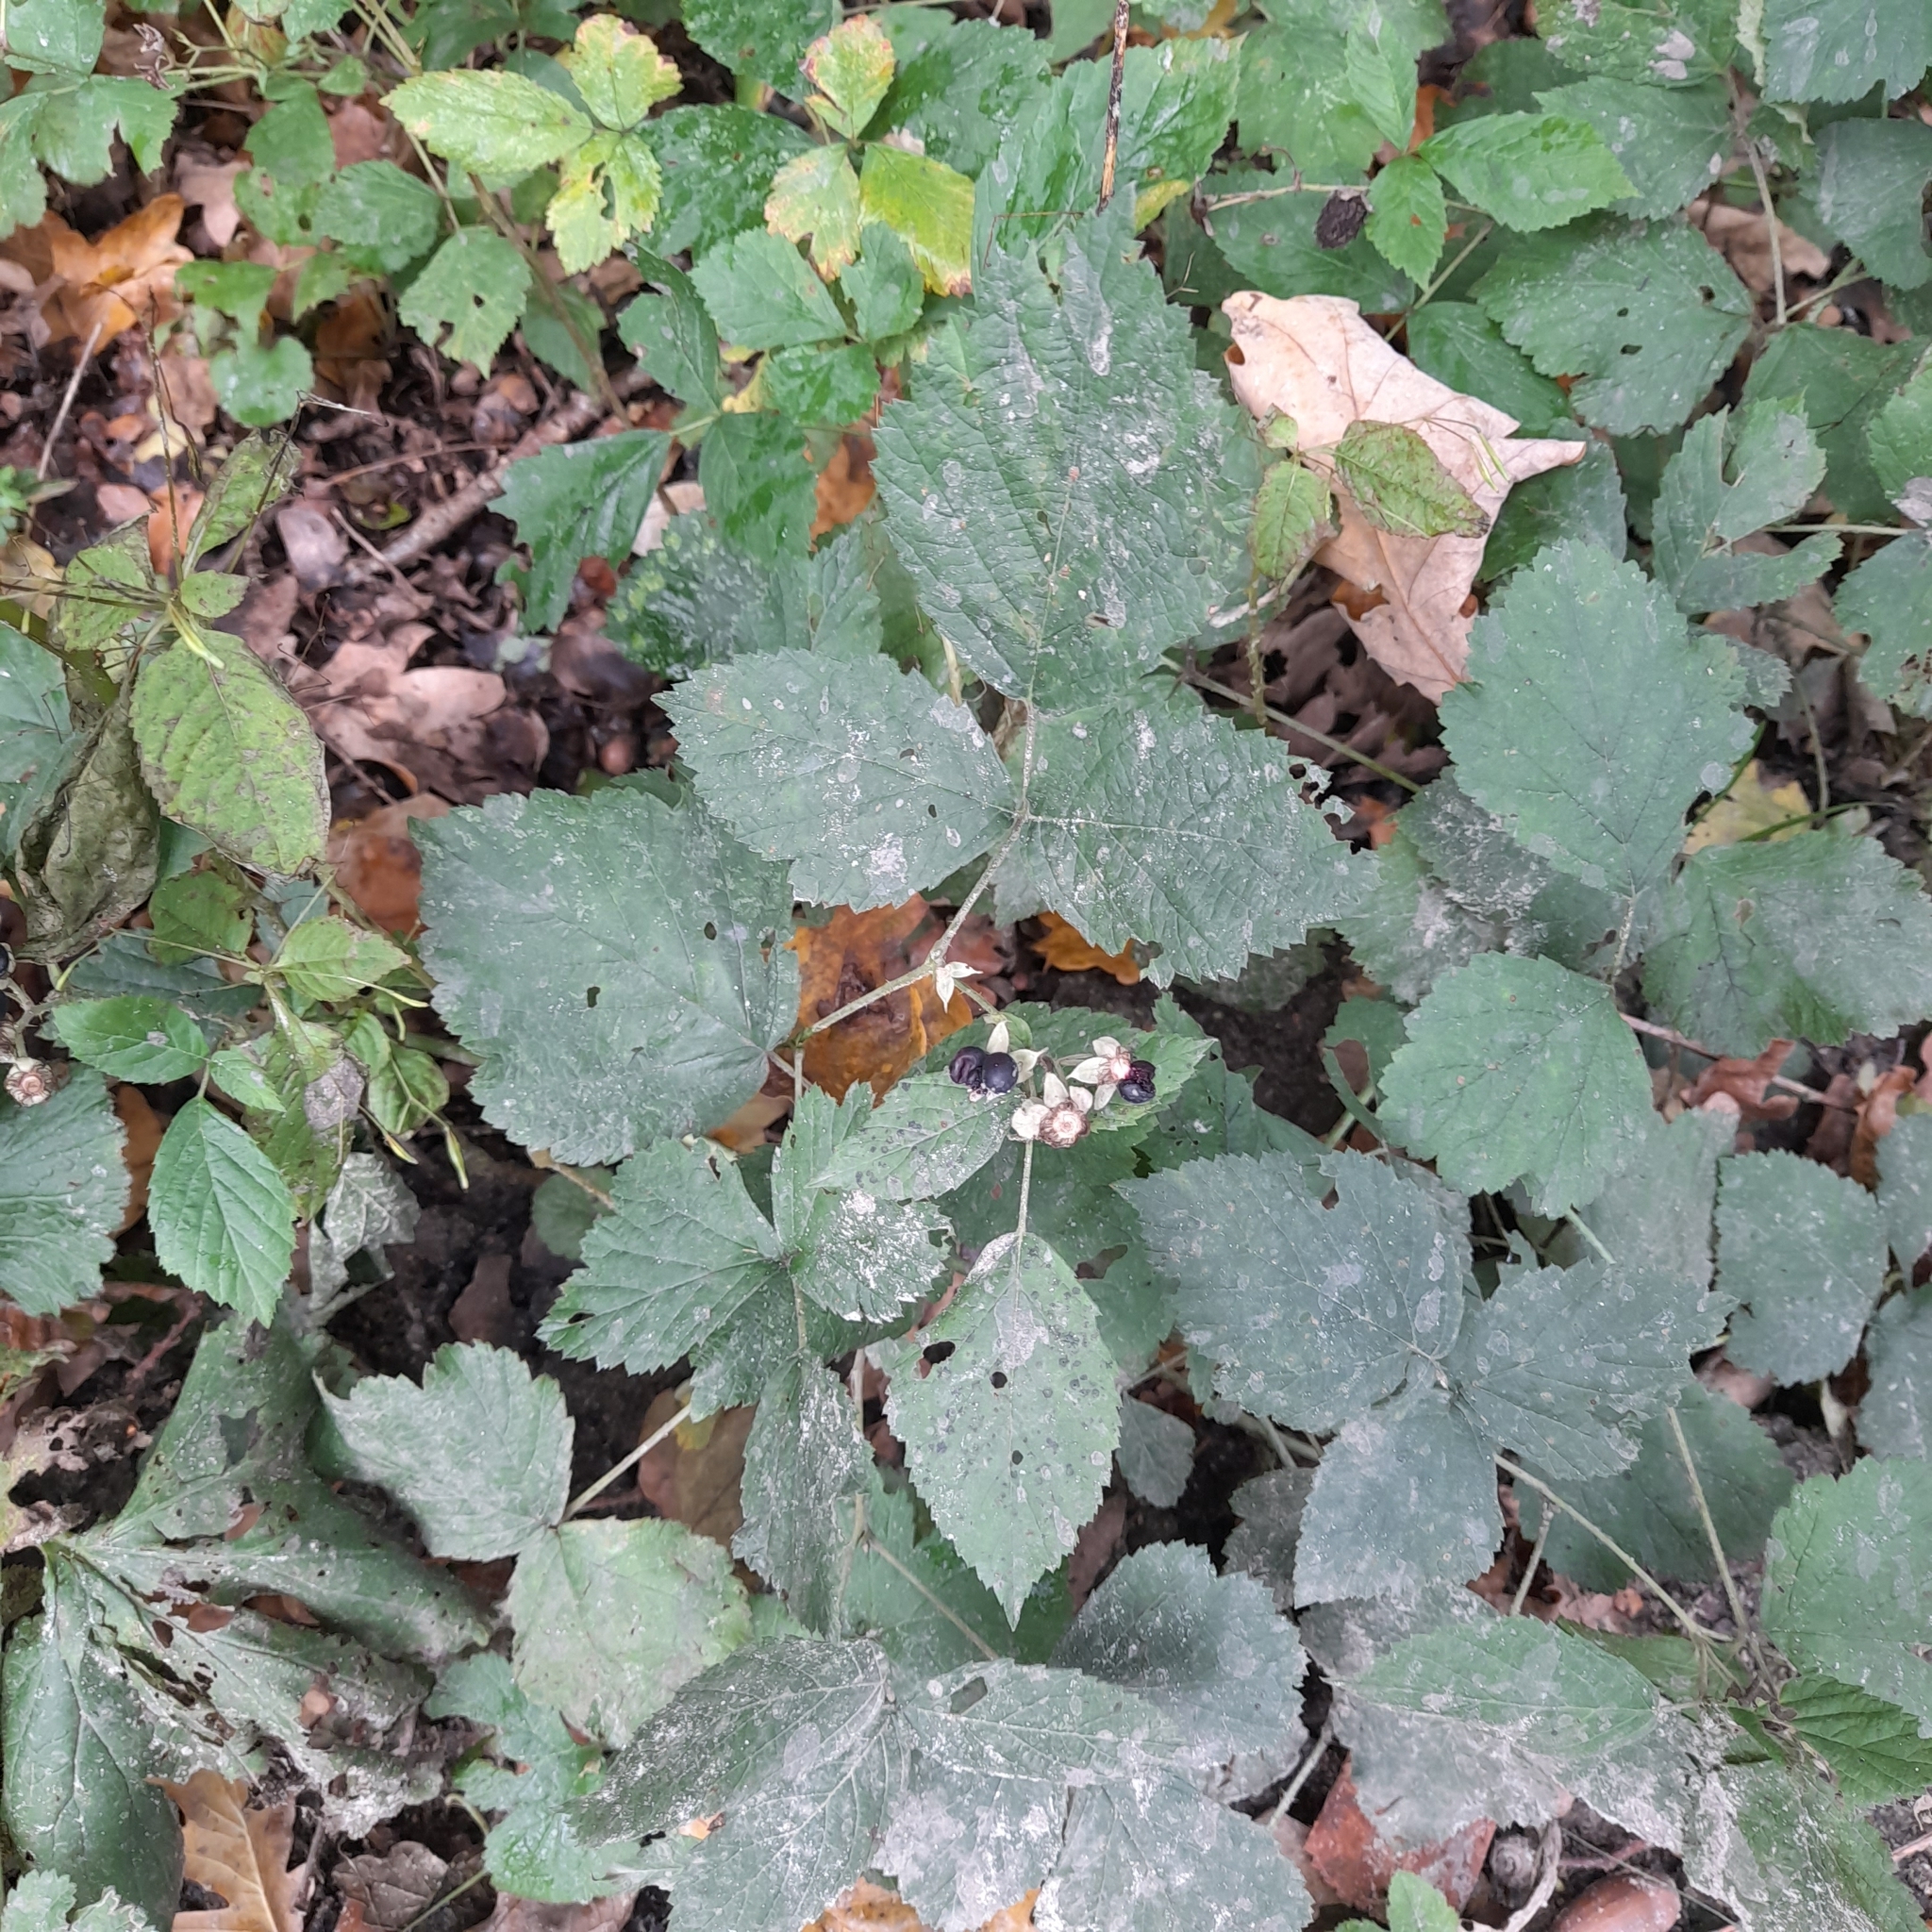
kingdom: Plantae
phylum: Tracheophyta
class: Magnoliopsida
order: Rosales
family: Rosaceae
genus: Rubus
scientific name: Rubus caesius
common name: Dewberry
